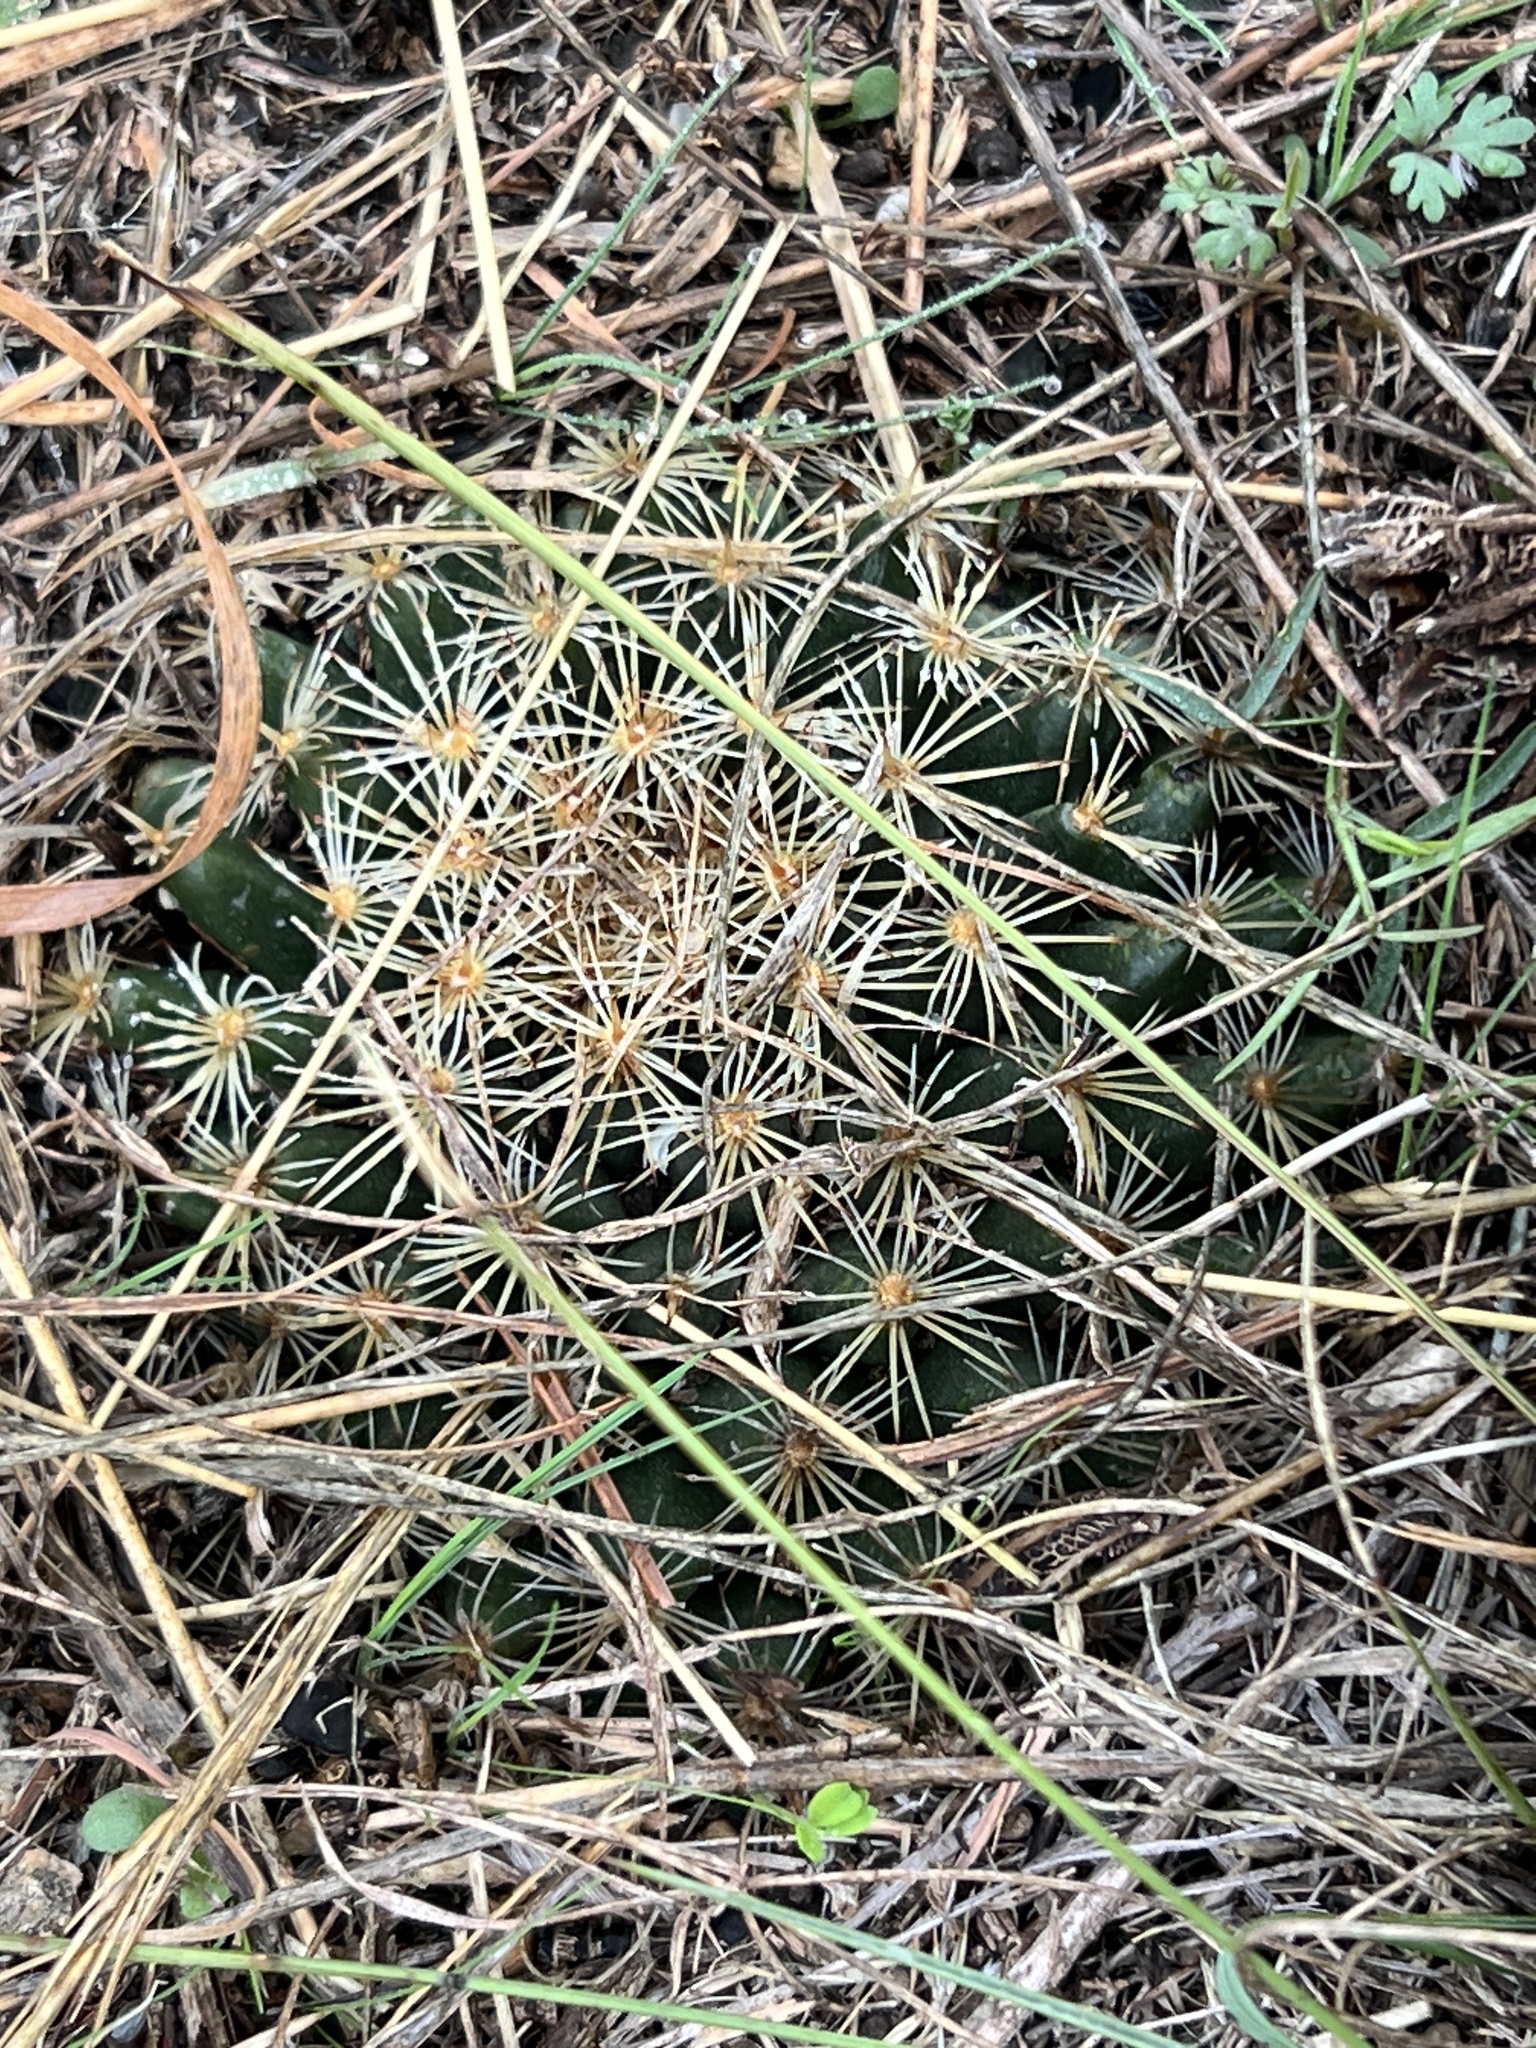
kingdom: Plantae
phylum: Tracheophyta
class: Magnoliopsida
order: Caryophyllales
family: Cactaceae
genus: Mammillaria
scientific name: Mammillaria heyderi
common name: Little nipple cactus
